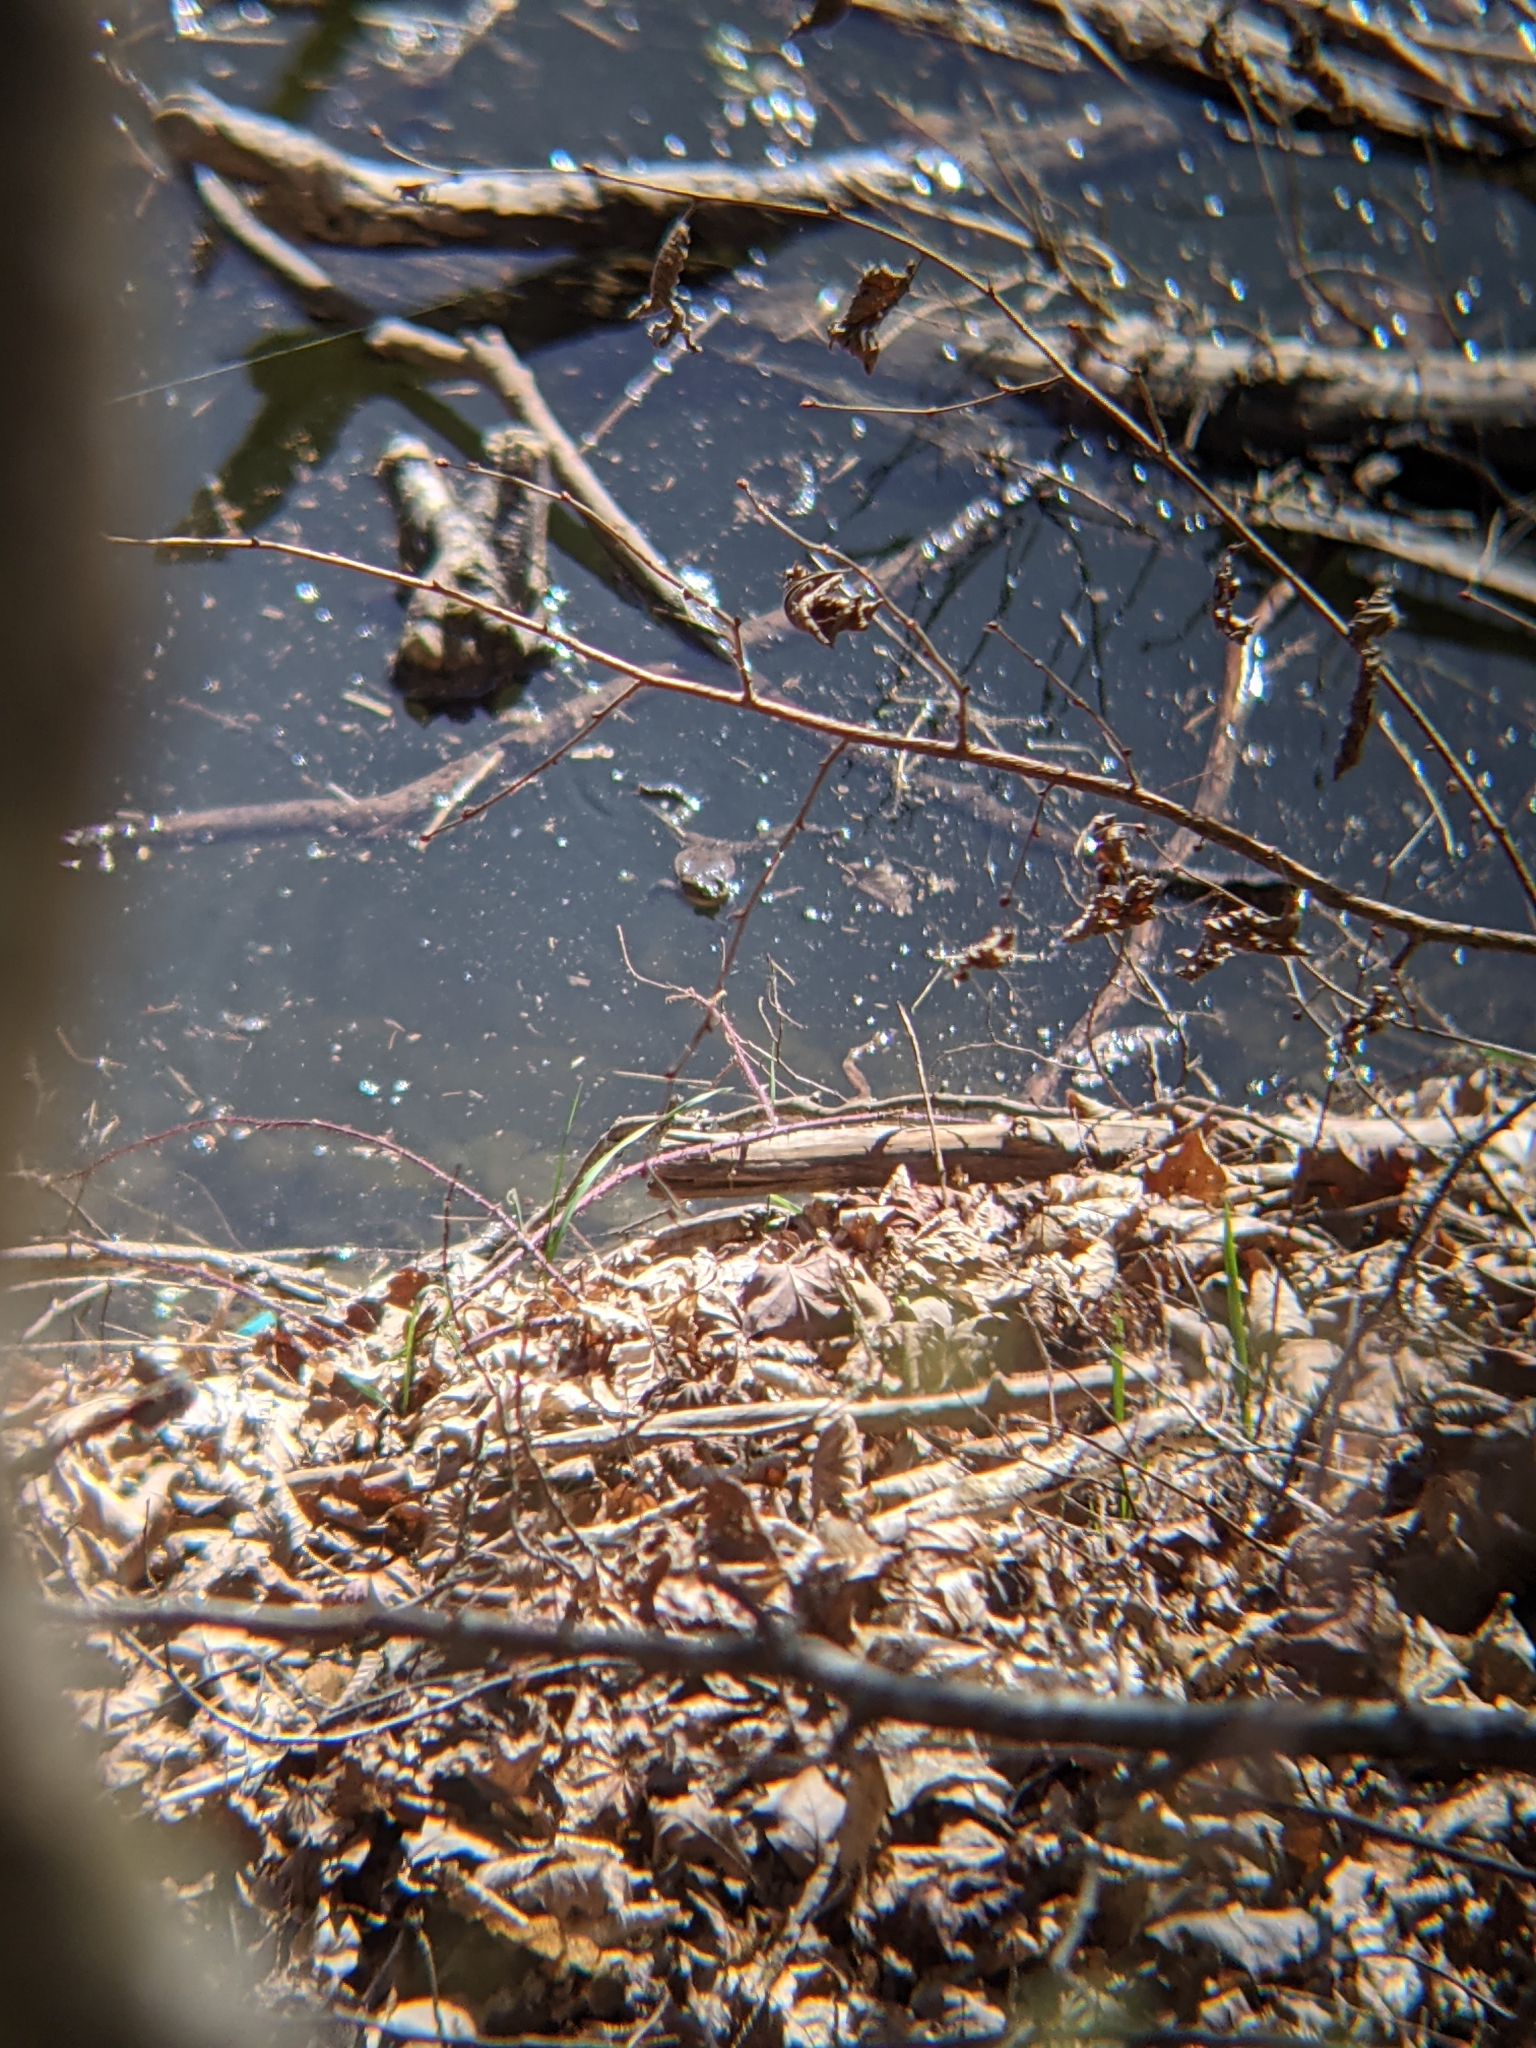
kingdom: Animalia
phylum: Chordata
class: Amphibia
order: Anura
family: Bufonidae
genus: Bufo
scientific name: Bufo bufo
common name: Common toad
